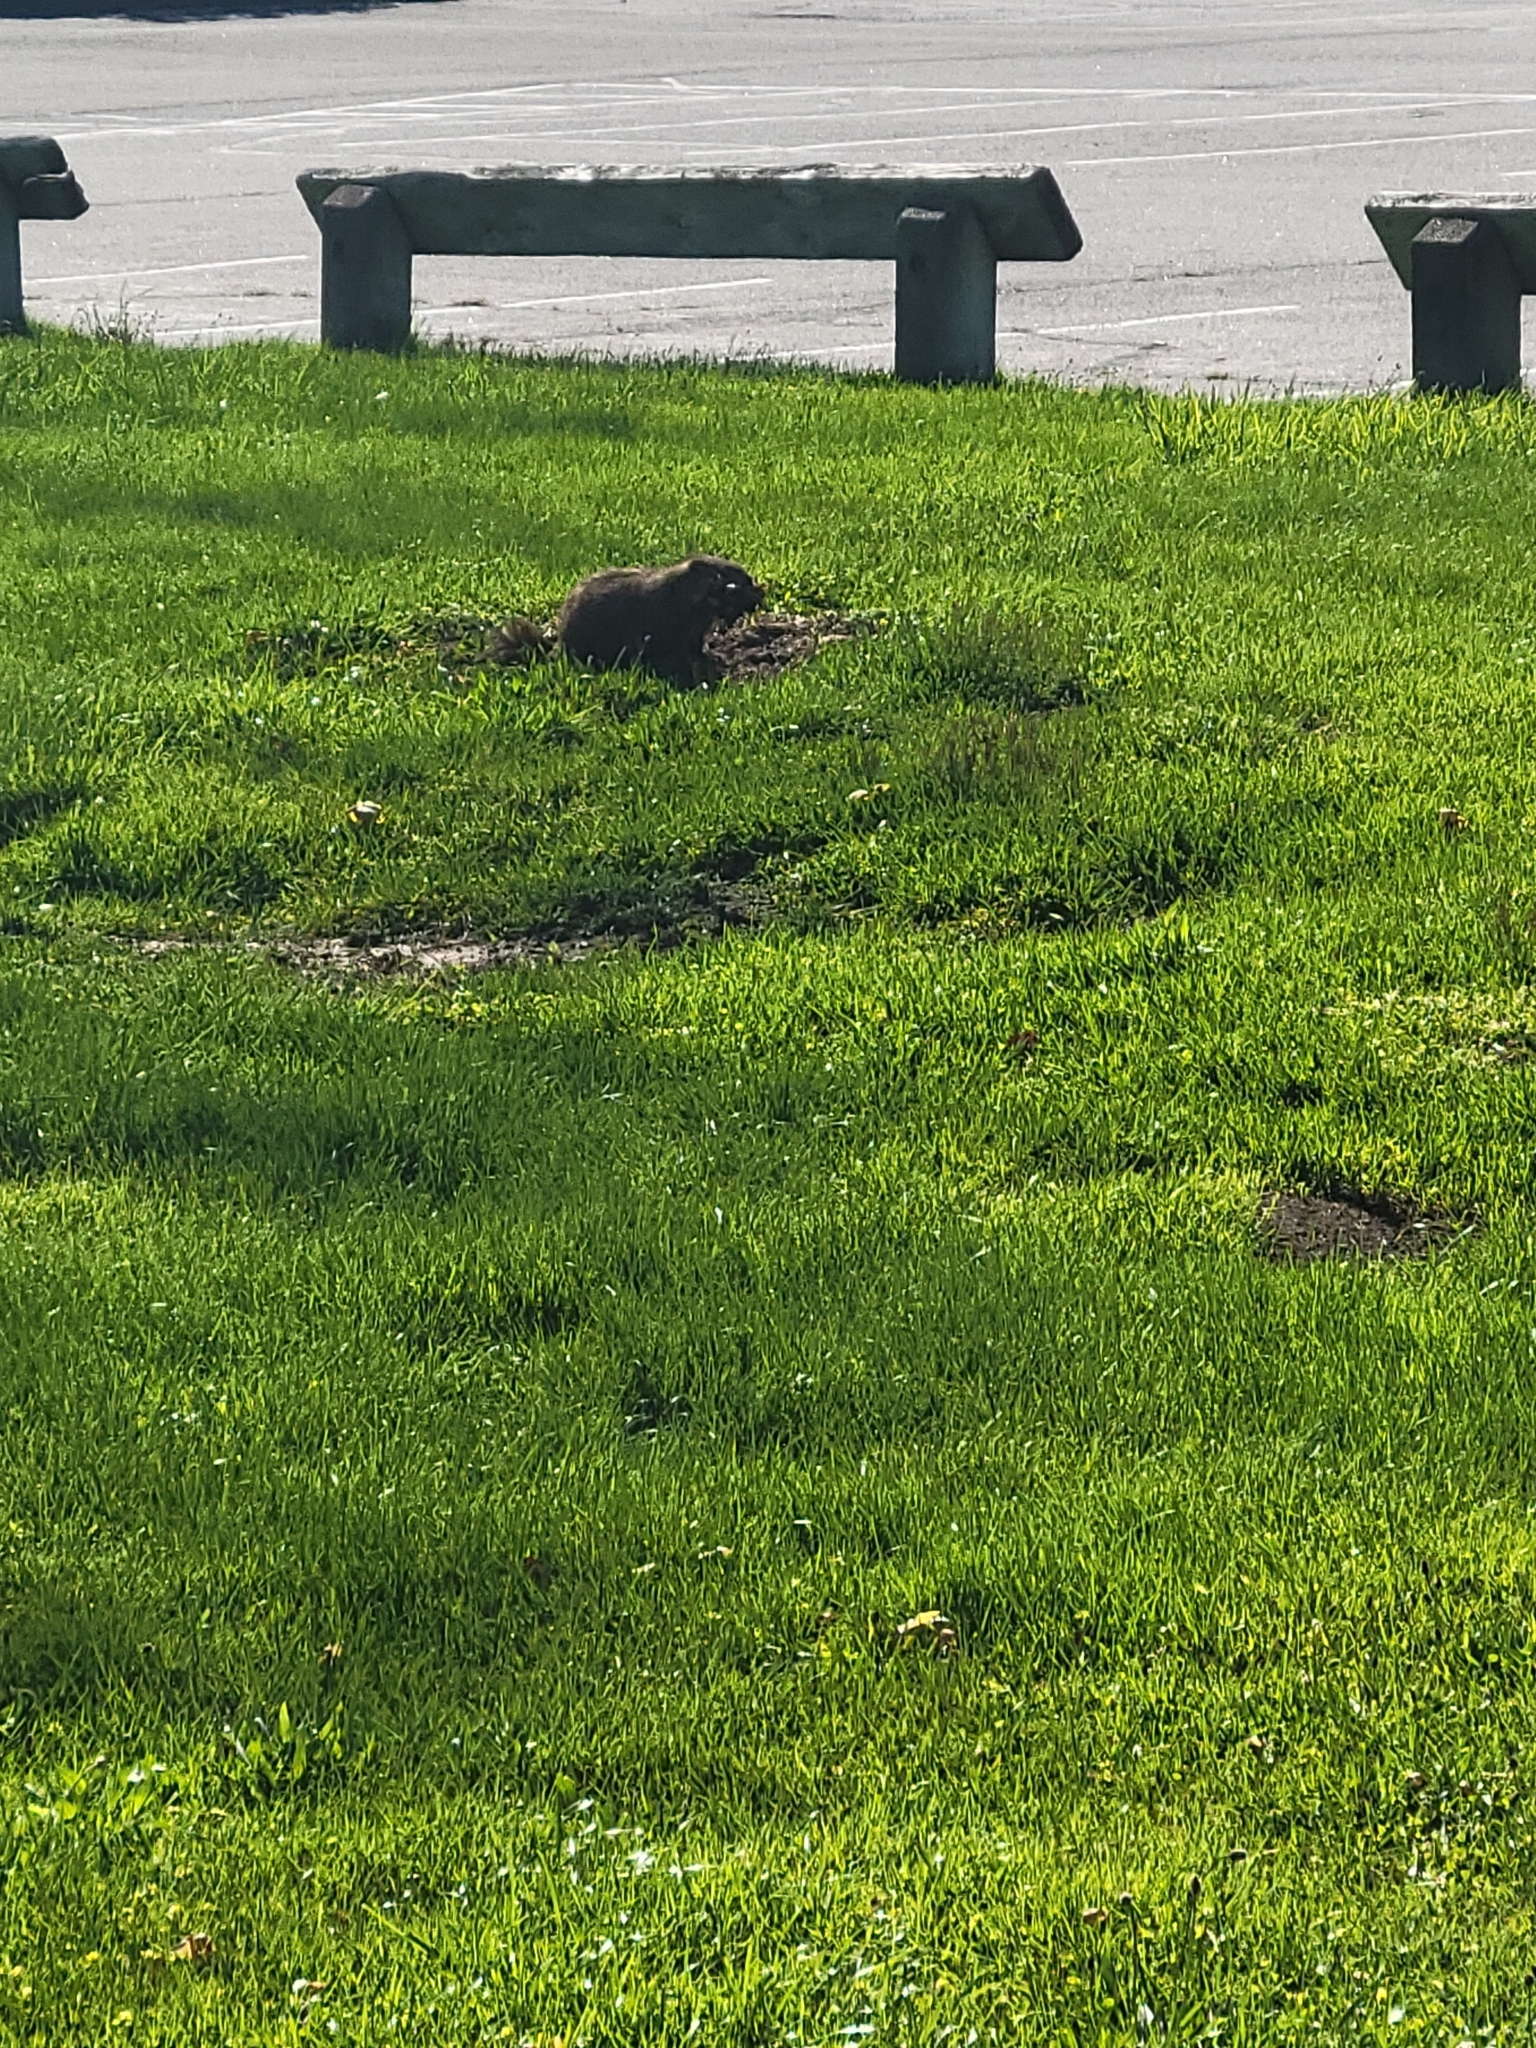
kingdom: Animalia
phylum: Chordata
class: Mammalia
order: Rodentia
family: Sciuridae
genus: Marmota
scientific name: Marmota monax
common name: Groundhog
